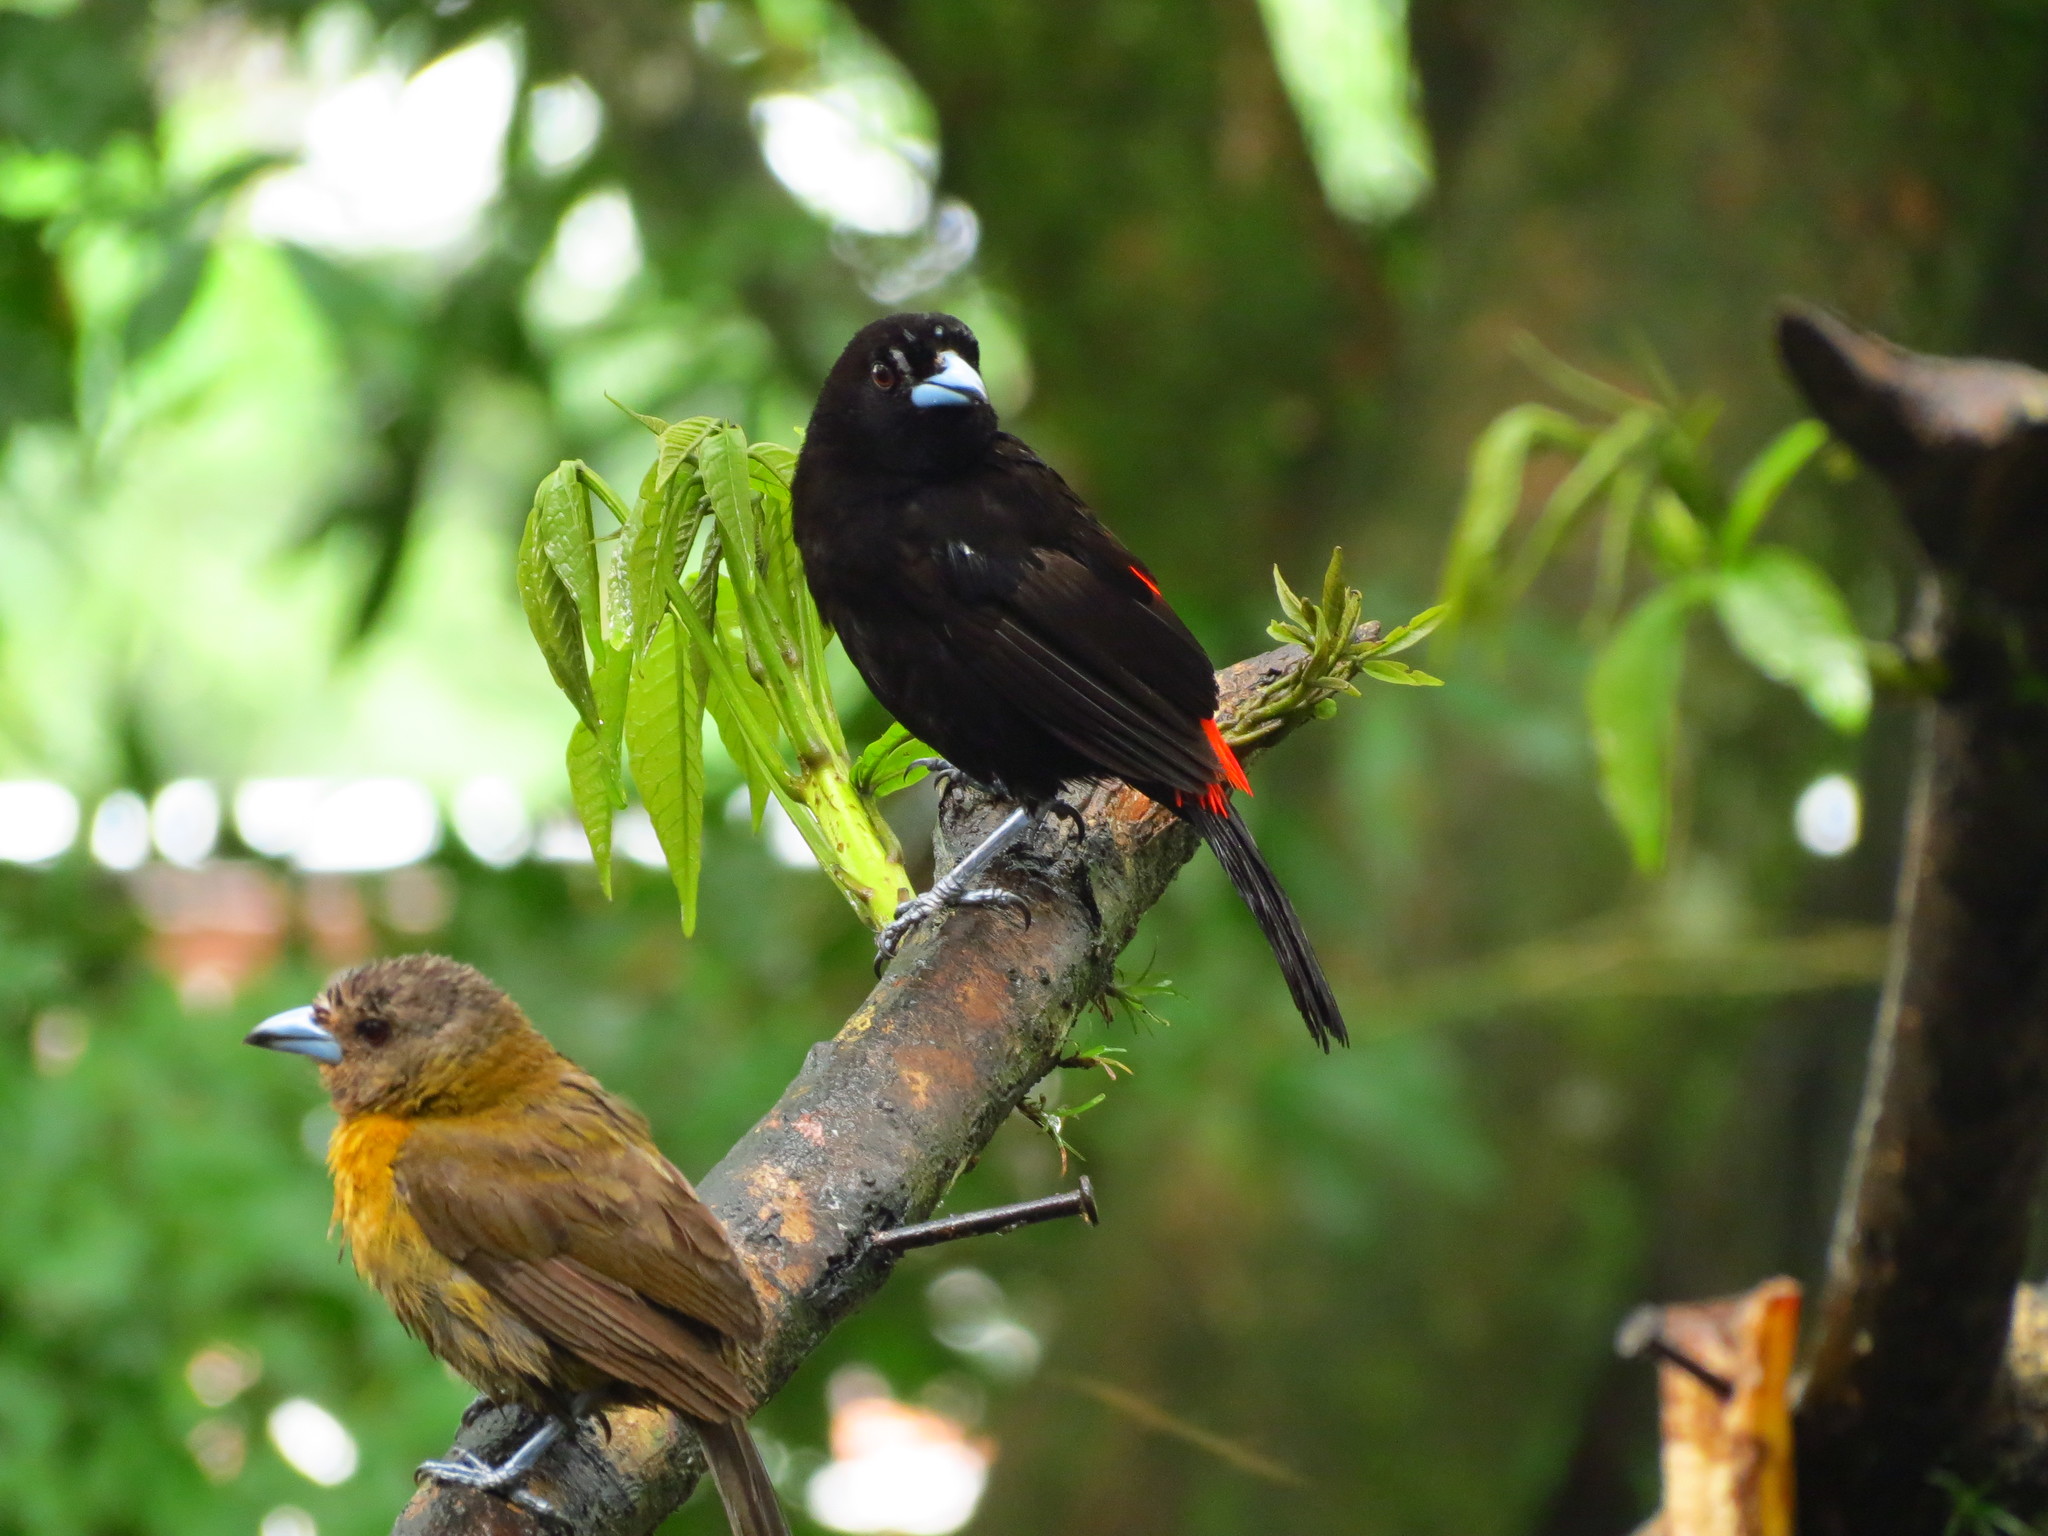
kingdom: Animalia
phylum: Chordata
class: Aves
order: Passeriformes
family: Thraupidae
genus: Ramphocelus
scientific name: Ramphocelus passerinii
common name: Passerini's tanager
